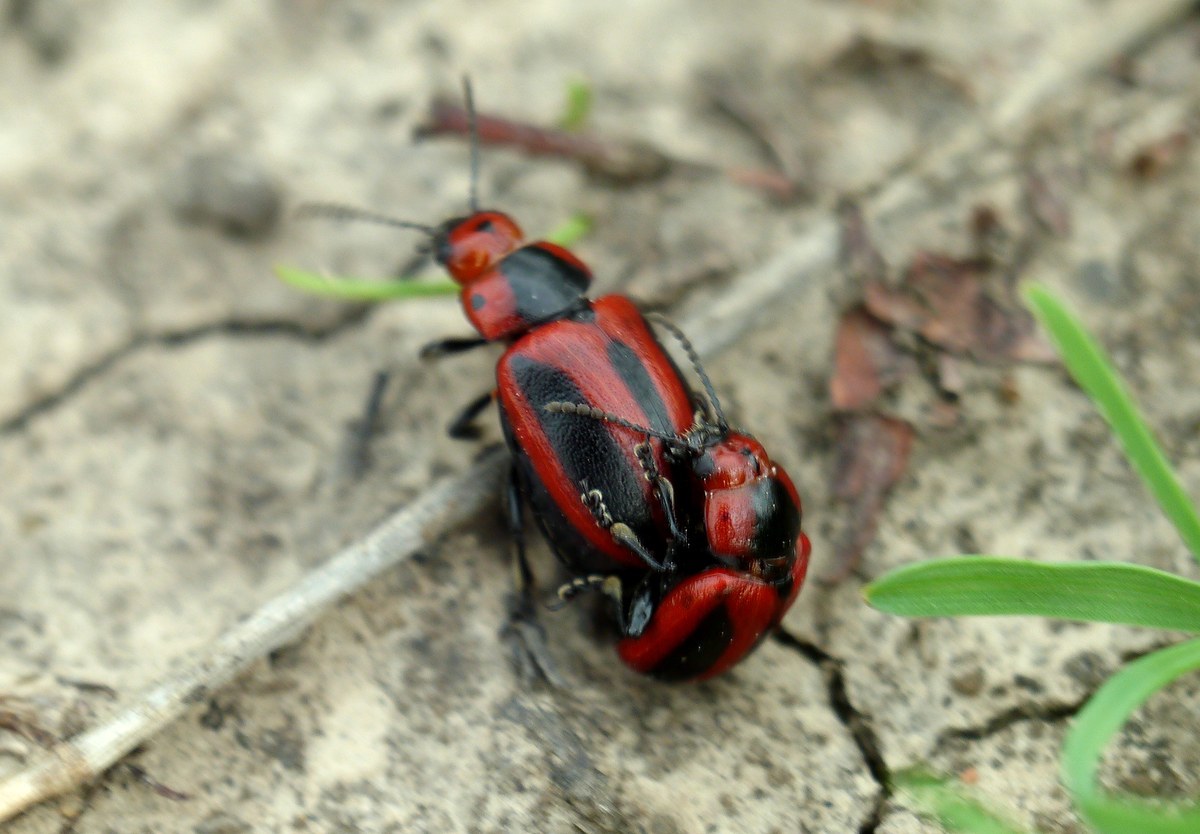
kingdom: Animalia
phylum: Arthropoda
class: Insecta
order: Coleoptera
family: Chrysomelidae
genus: Entomoscelis
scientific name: Entomoscelis adonidis
